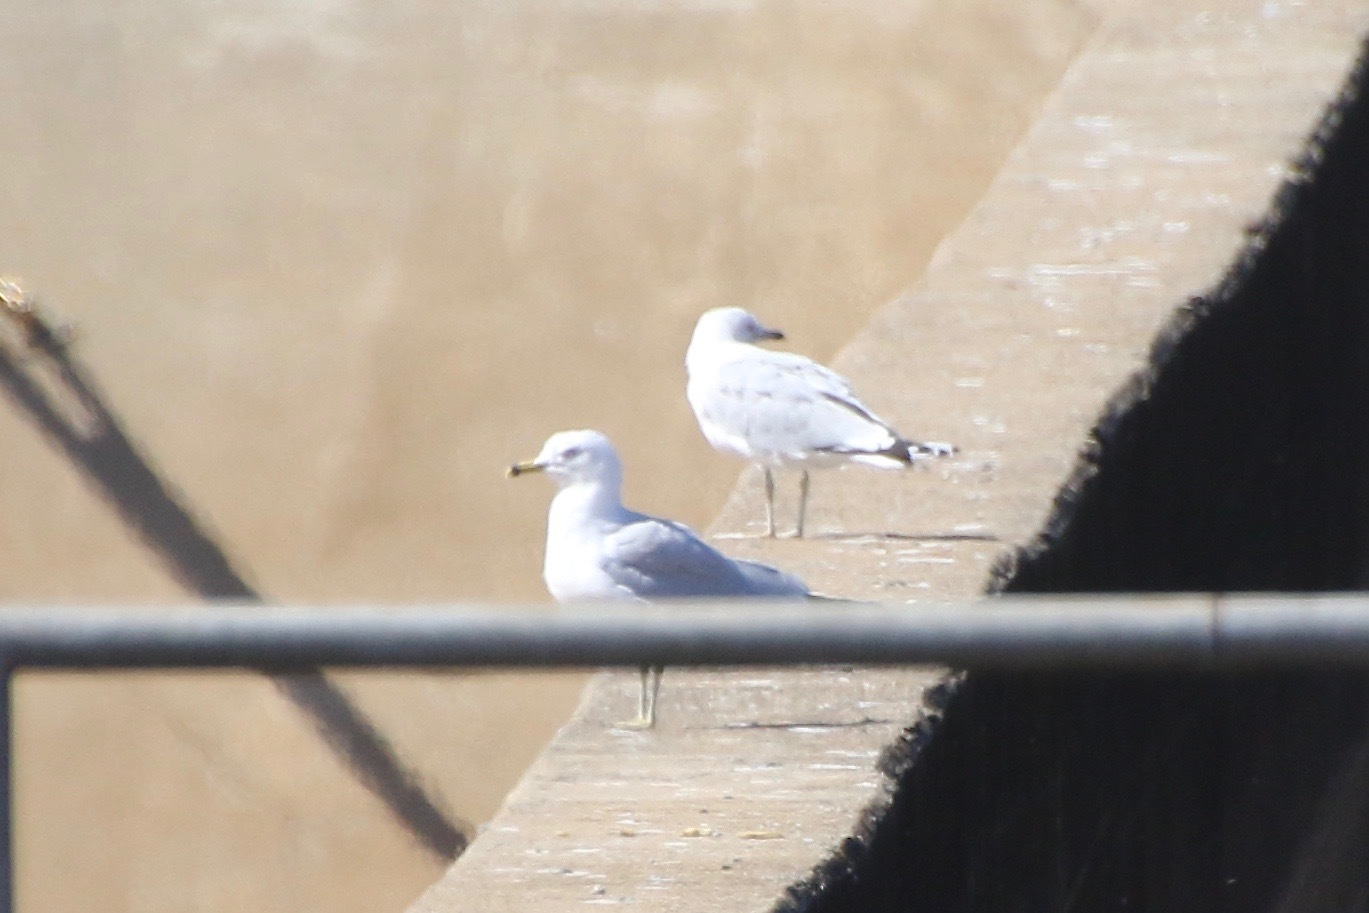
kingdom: Animalia
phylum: Chordata
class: Aves
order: Charadriiformes
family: Laridae
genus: Larus
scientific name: Larus delawarensis
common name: Ring-billed gull
